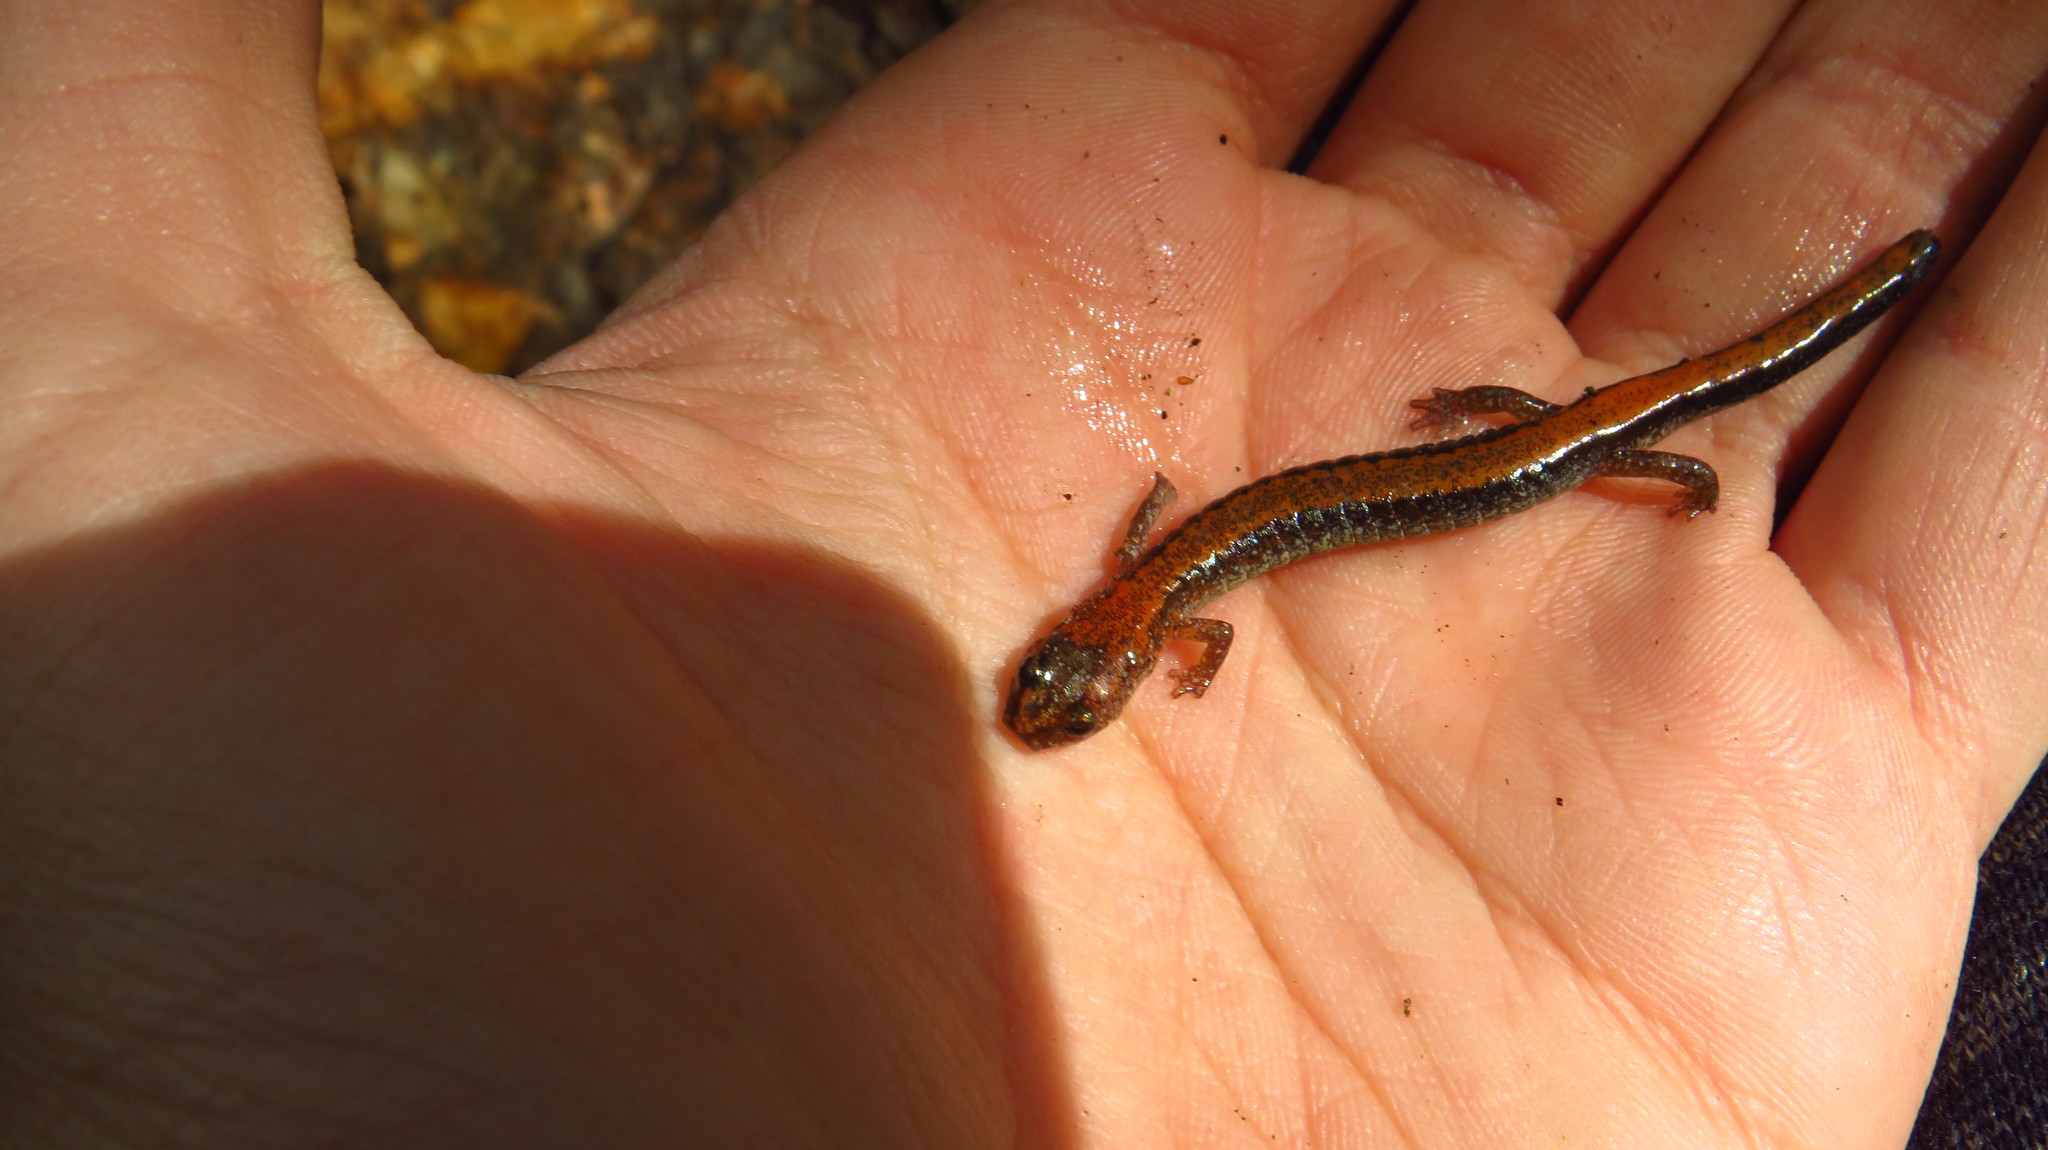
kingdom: Animalia
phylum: Chordata
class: Amphibia
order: Caudata
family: Plethodontidae
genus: Plethodon
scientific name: Plethodon cinereus
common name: Redback salamander
